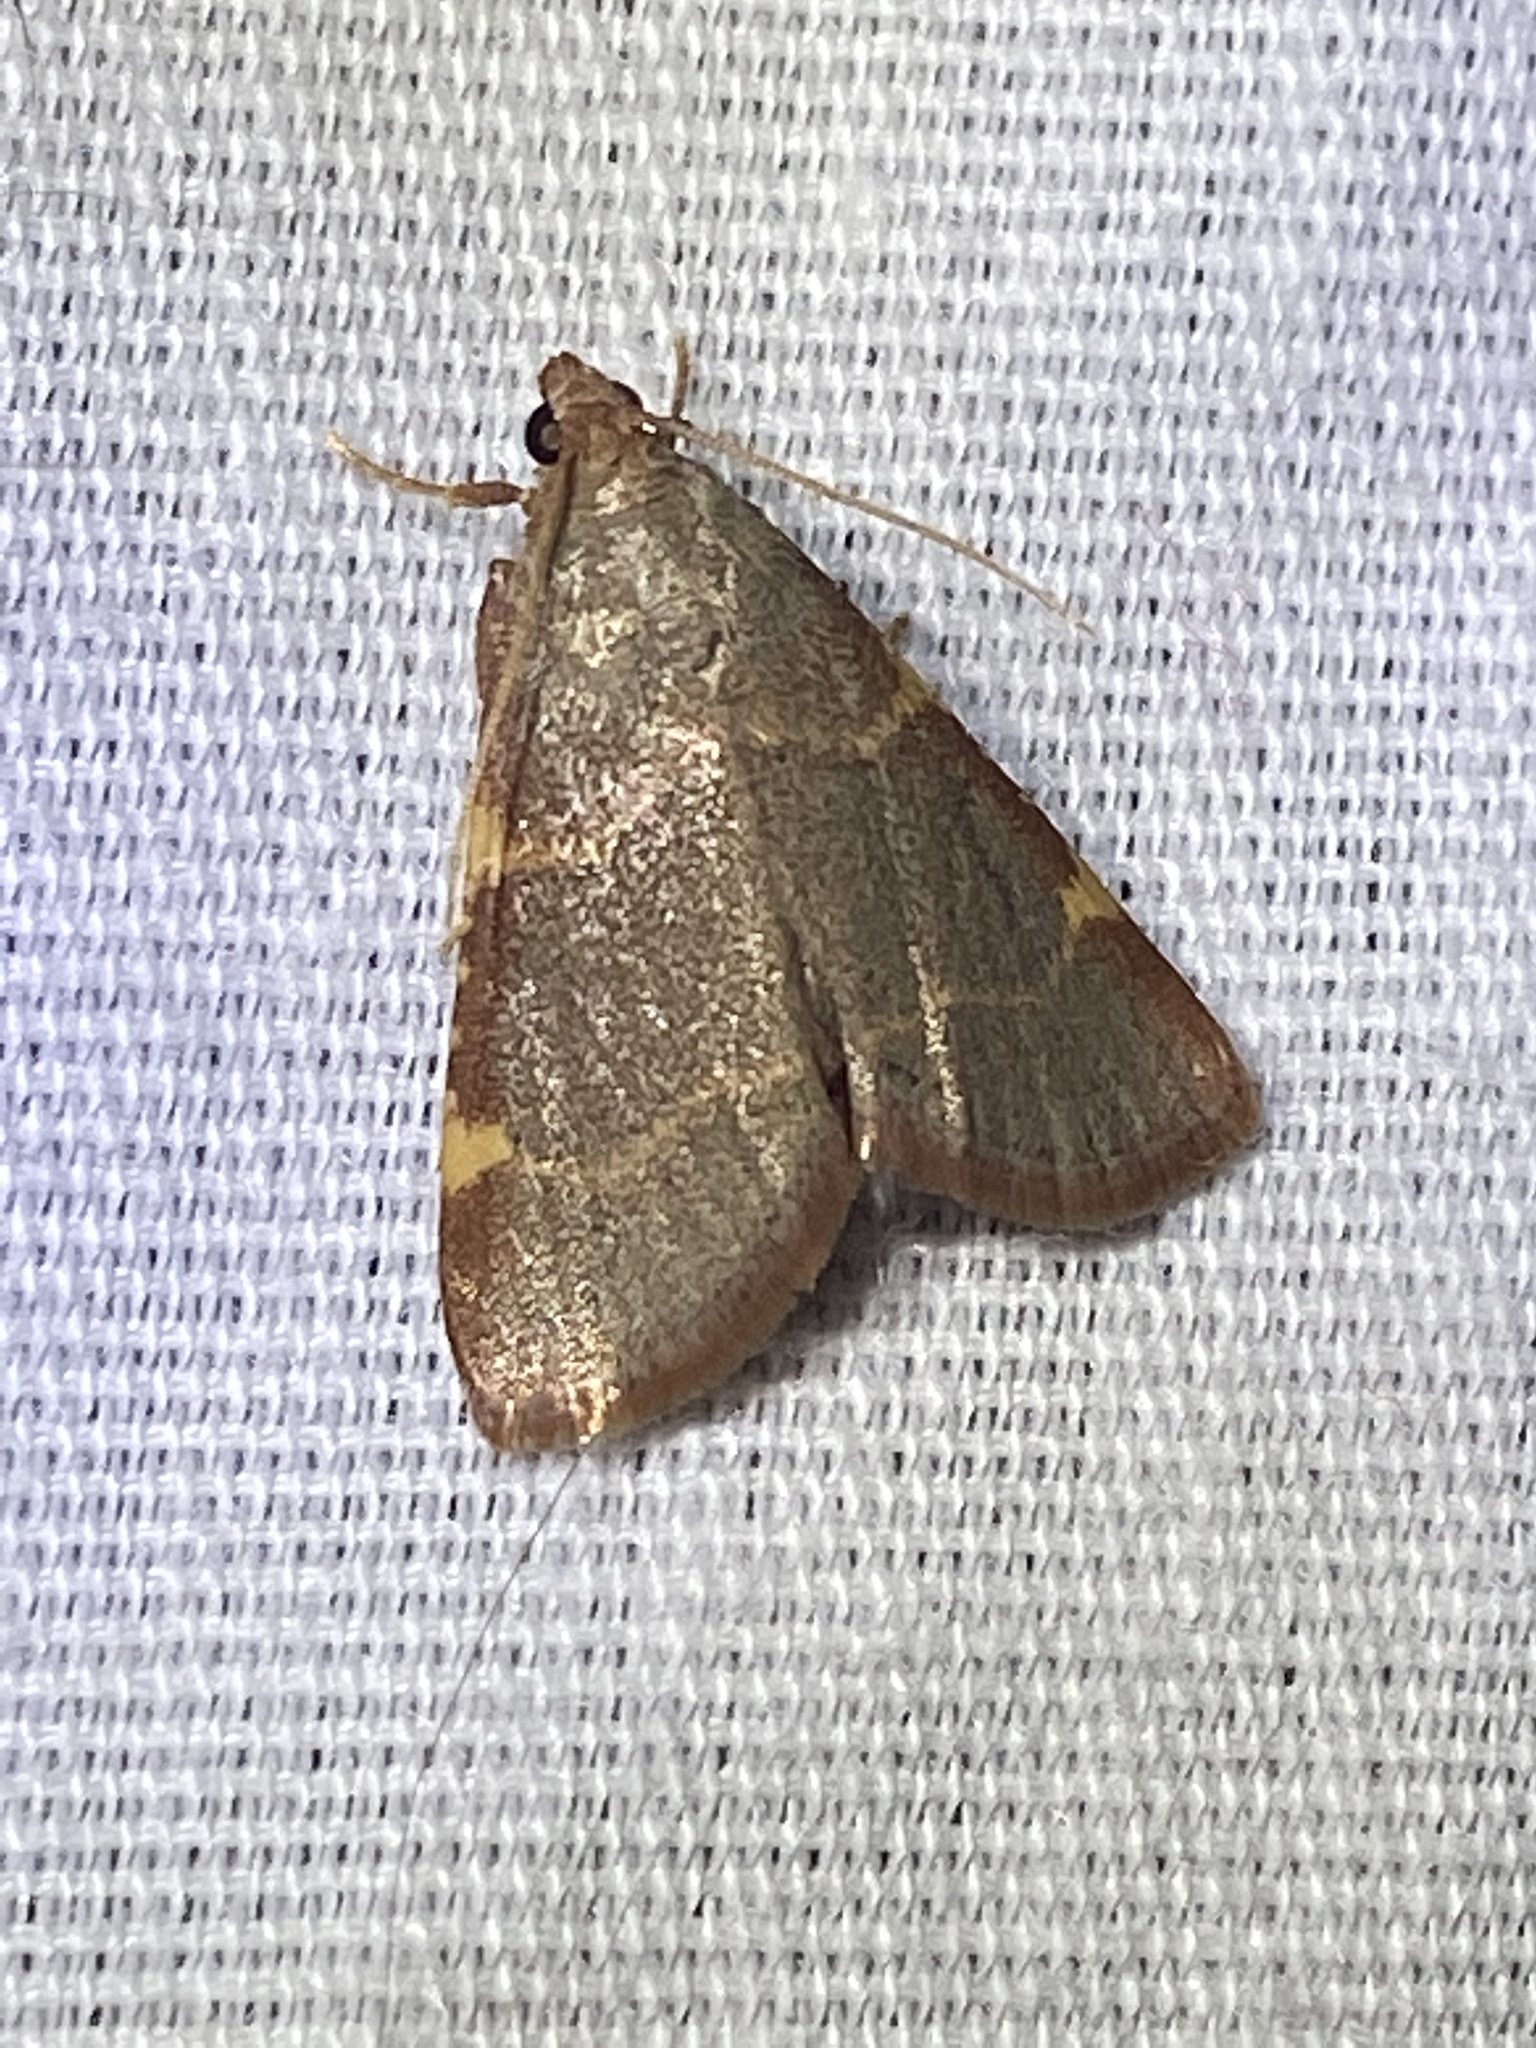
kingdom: Animalia
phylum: Arthropoda
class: Insecta
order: Lepidoptera
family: Pyralidae
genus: Hypsopygia
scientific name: Hypsopygia binodulalis
